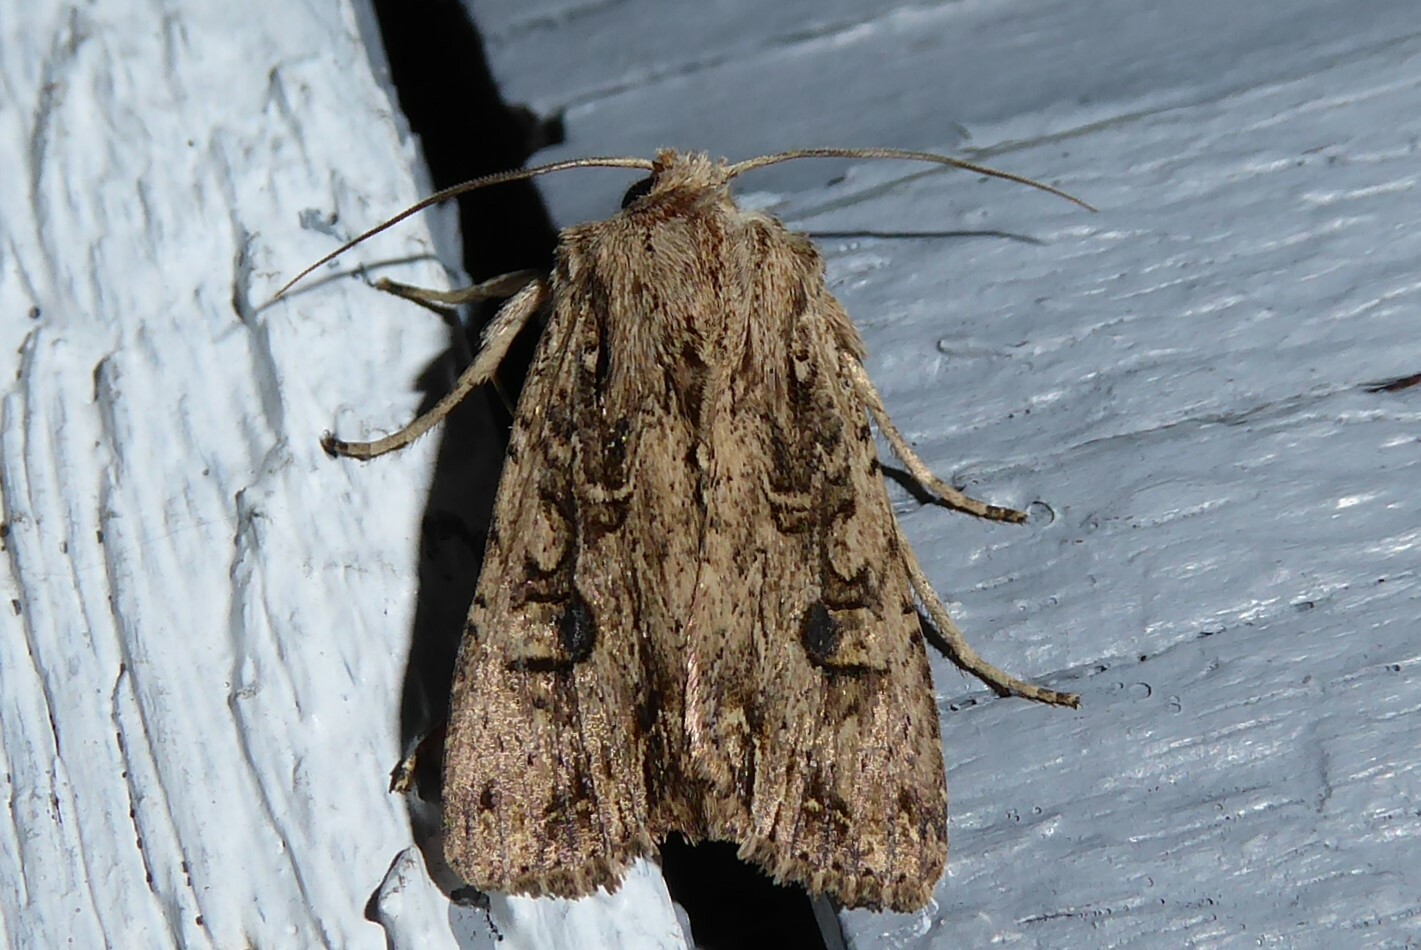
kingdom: Animalia
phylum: Arthropoda
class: Insecta
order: Lepidoptera
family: Noctuidae
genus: Ichneutica
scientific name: Ichneutica lignana
